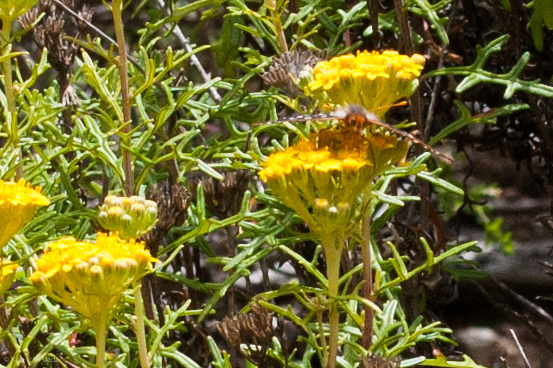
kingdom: Animalia
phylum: Arthropoda
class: Insecta
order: Lepidoptera
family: Nymphalidae
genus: Occidryas
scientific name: Occidryas chalcedona
